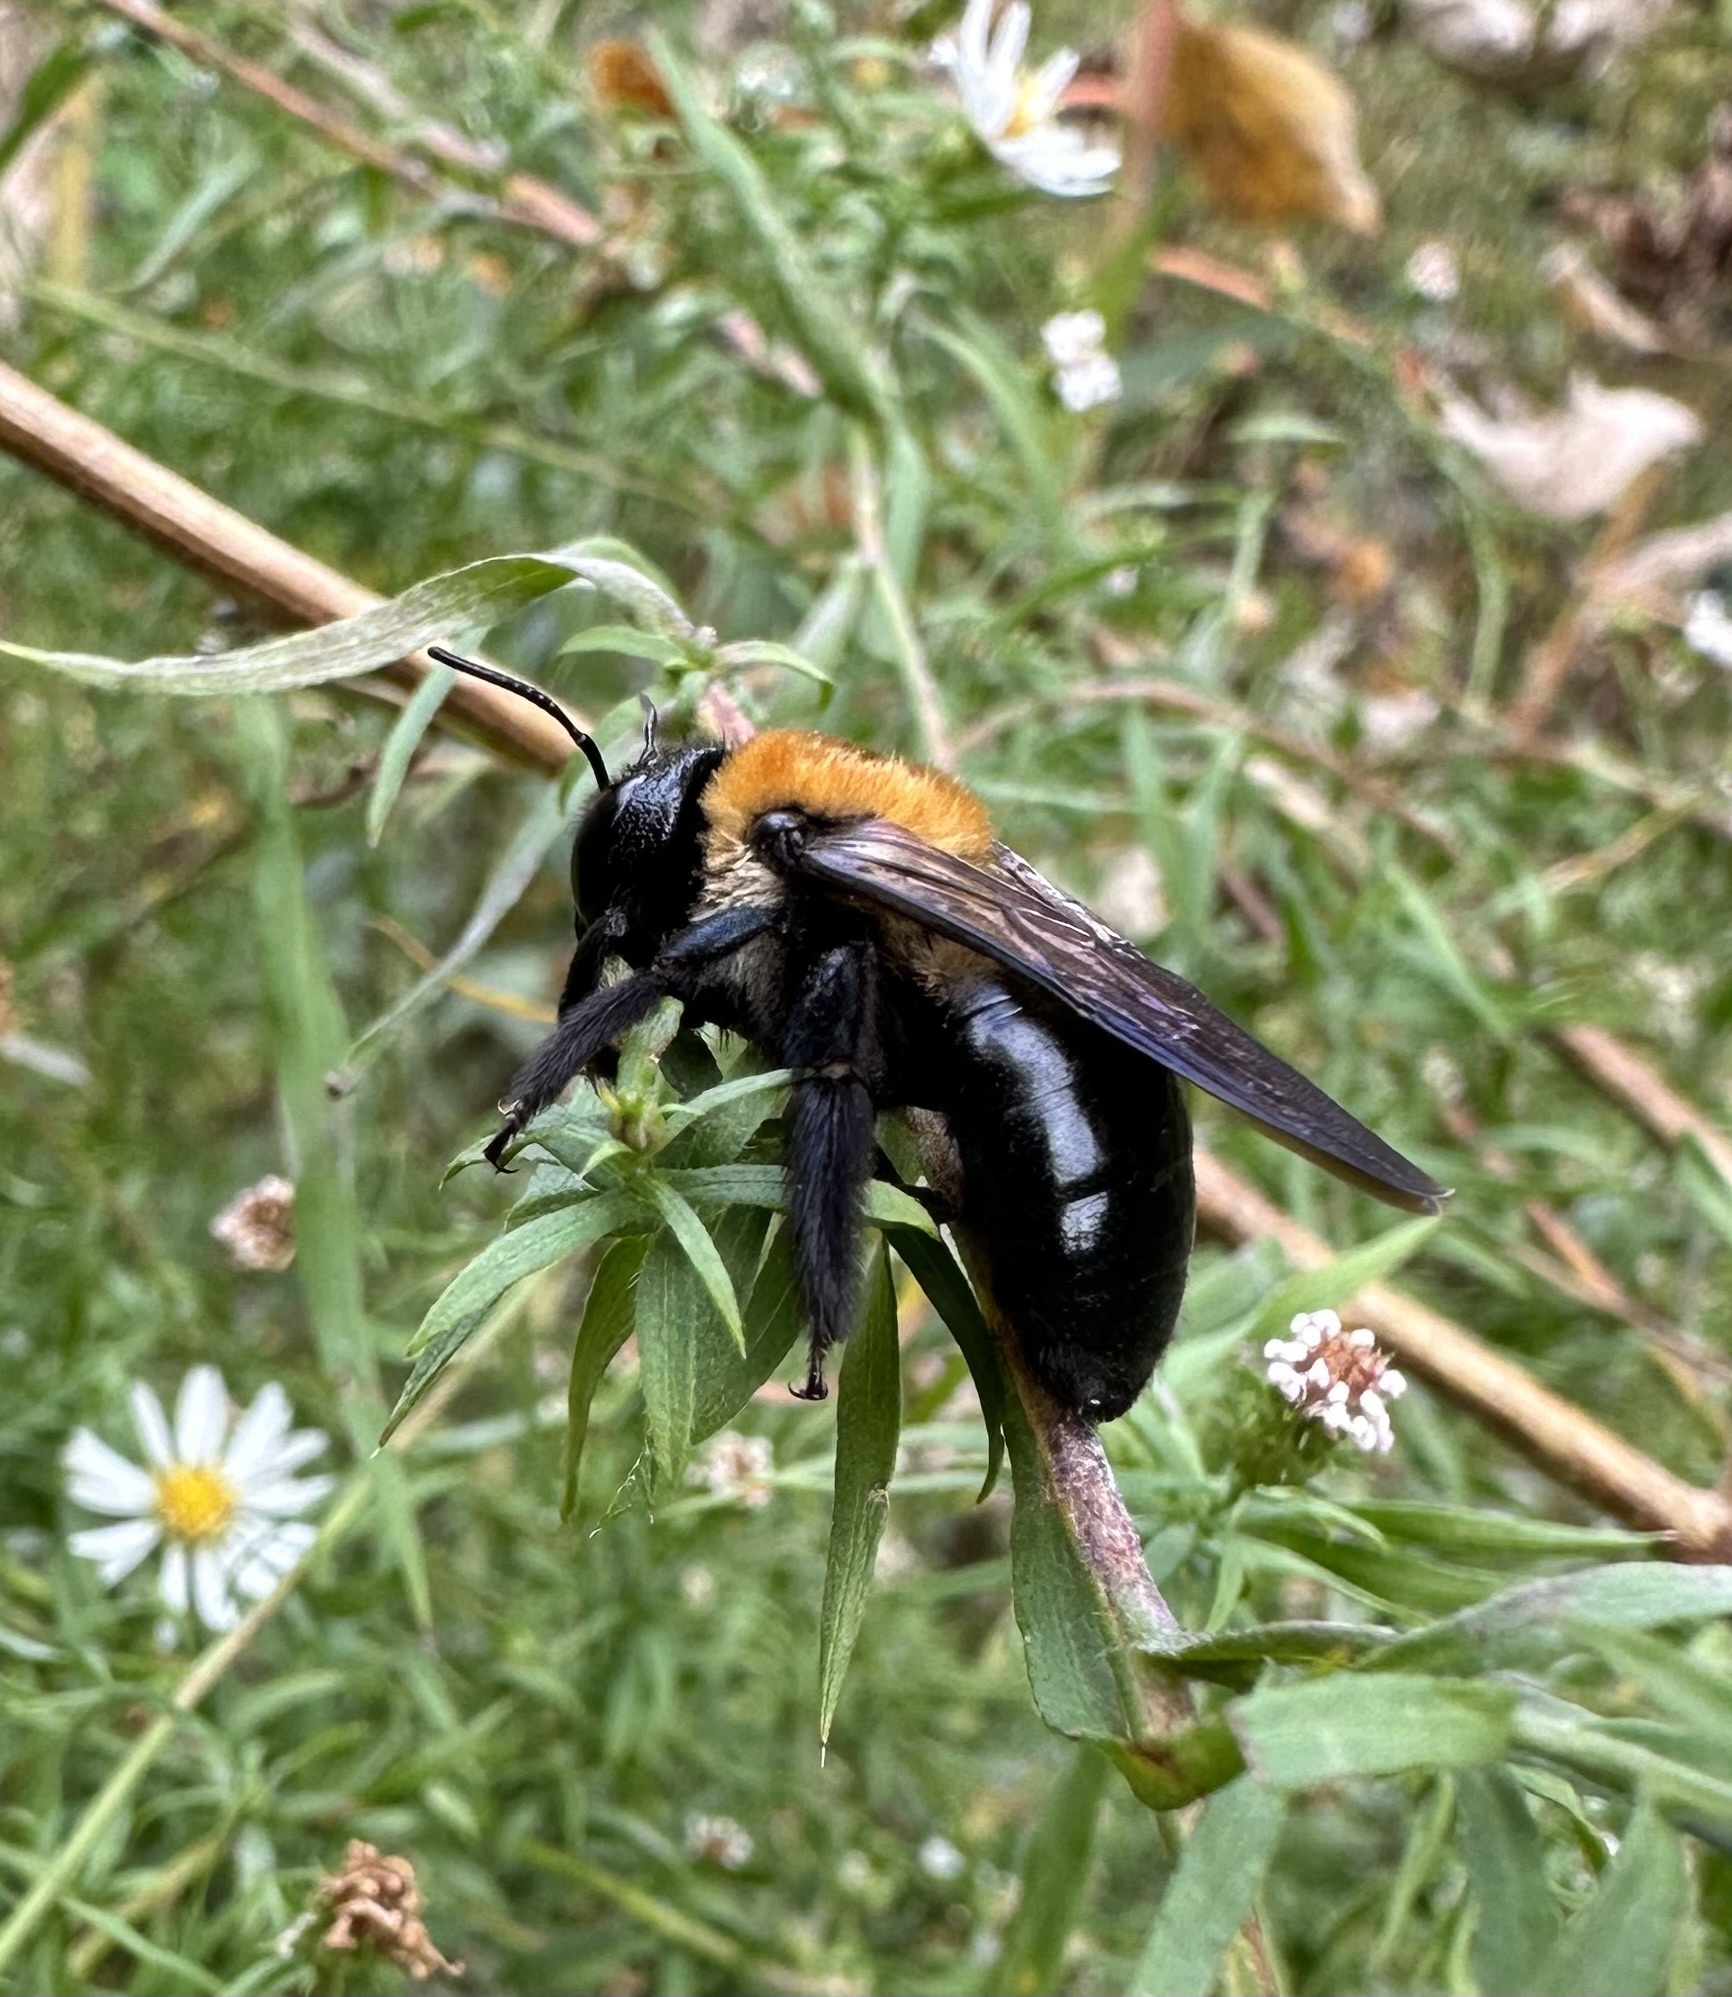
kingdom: Animalia
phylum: Arthropoda
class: Insecta
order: Hymenoptera
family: Apidae
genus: Xylocopa
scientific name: Xylocopa virginica
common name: Carpenter bee
